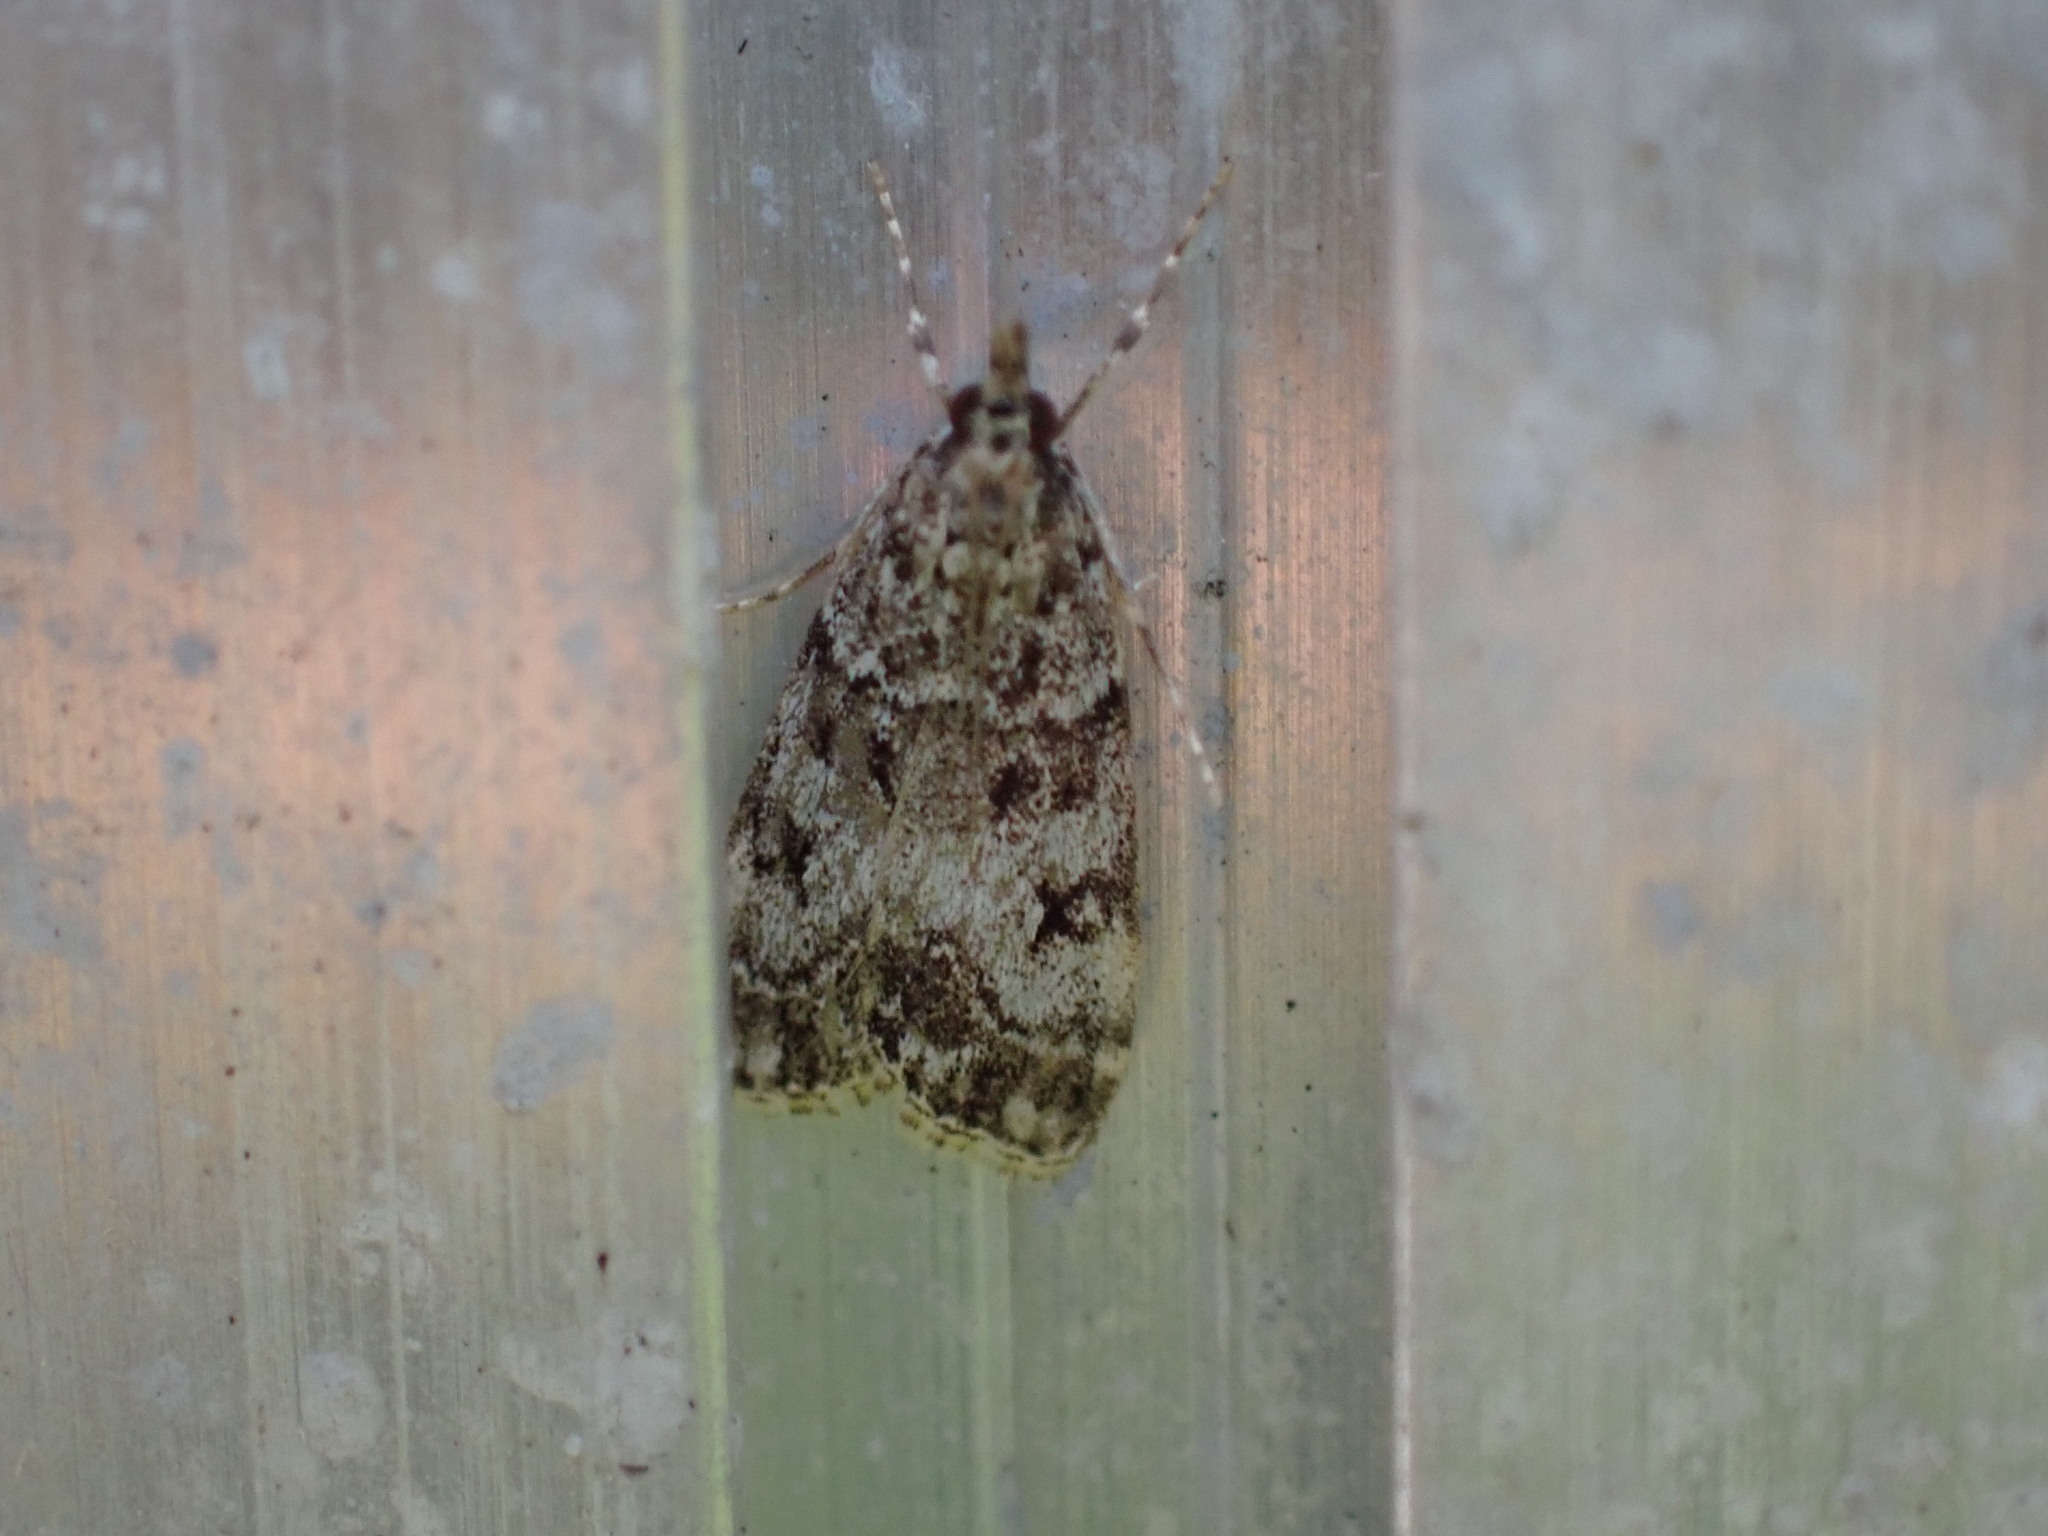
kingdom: Animalia
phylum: Arthropoda
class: Insecta
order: Lepidoptera
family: Crambidae
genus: Eudonia
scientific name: Eudonia lacustrata
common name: Little grey
